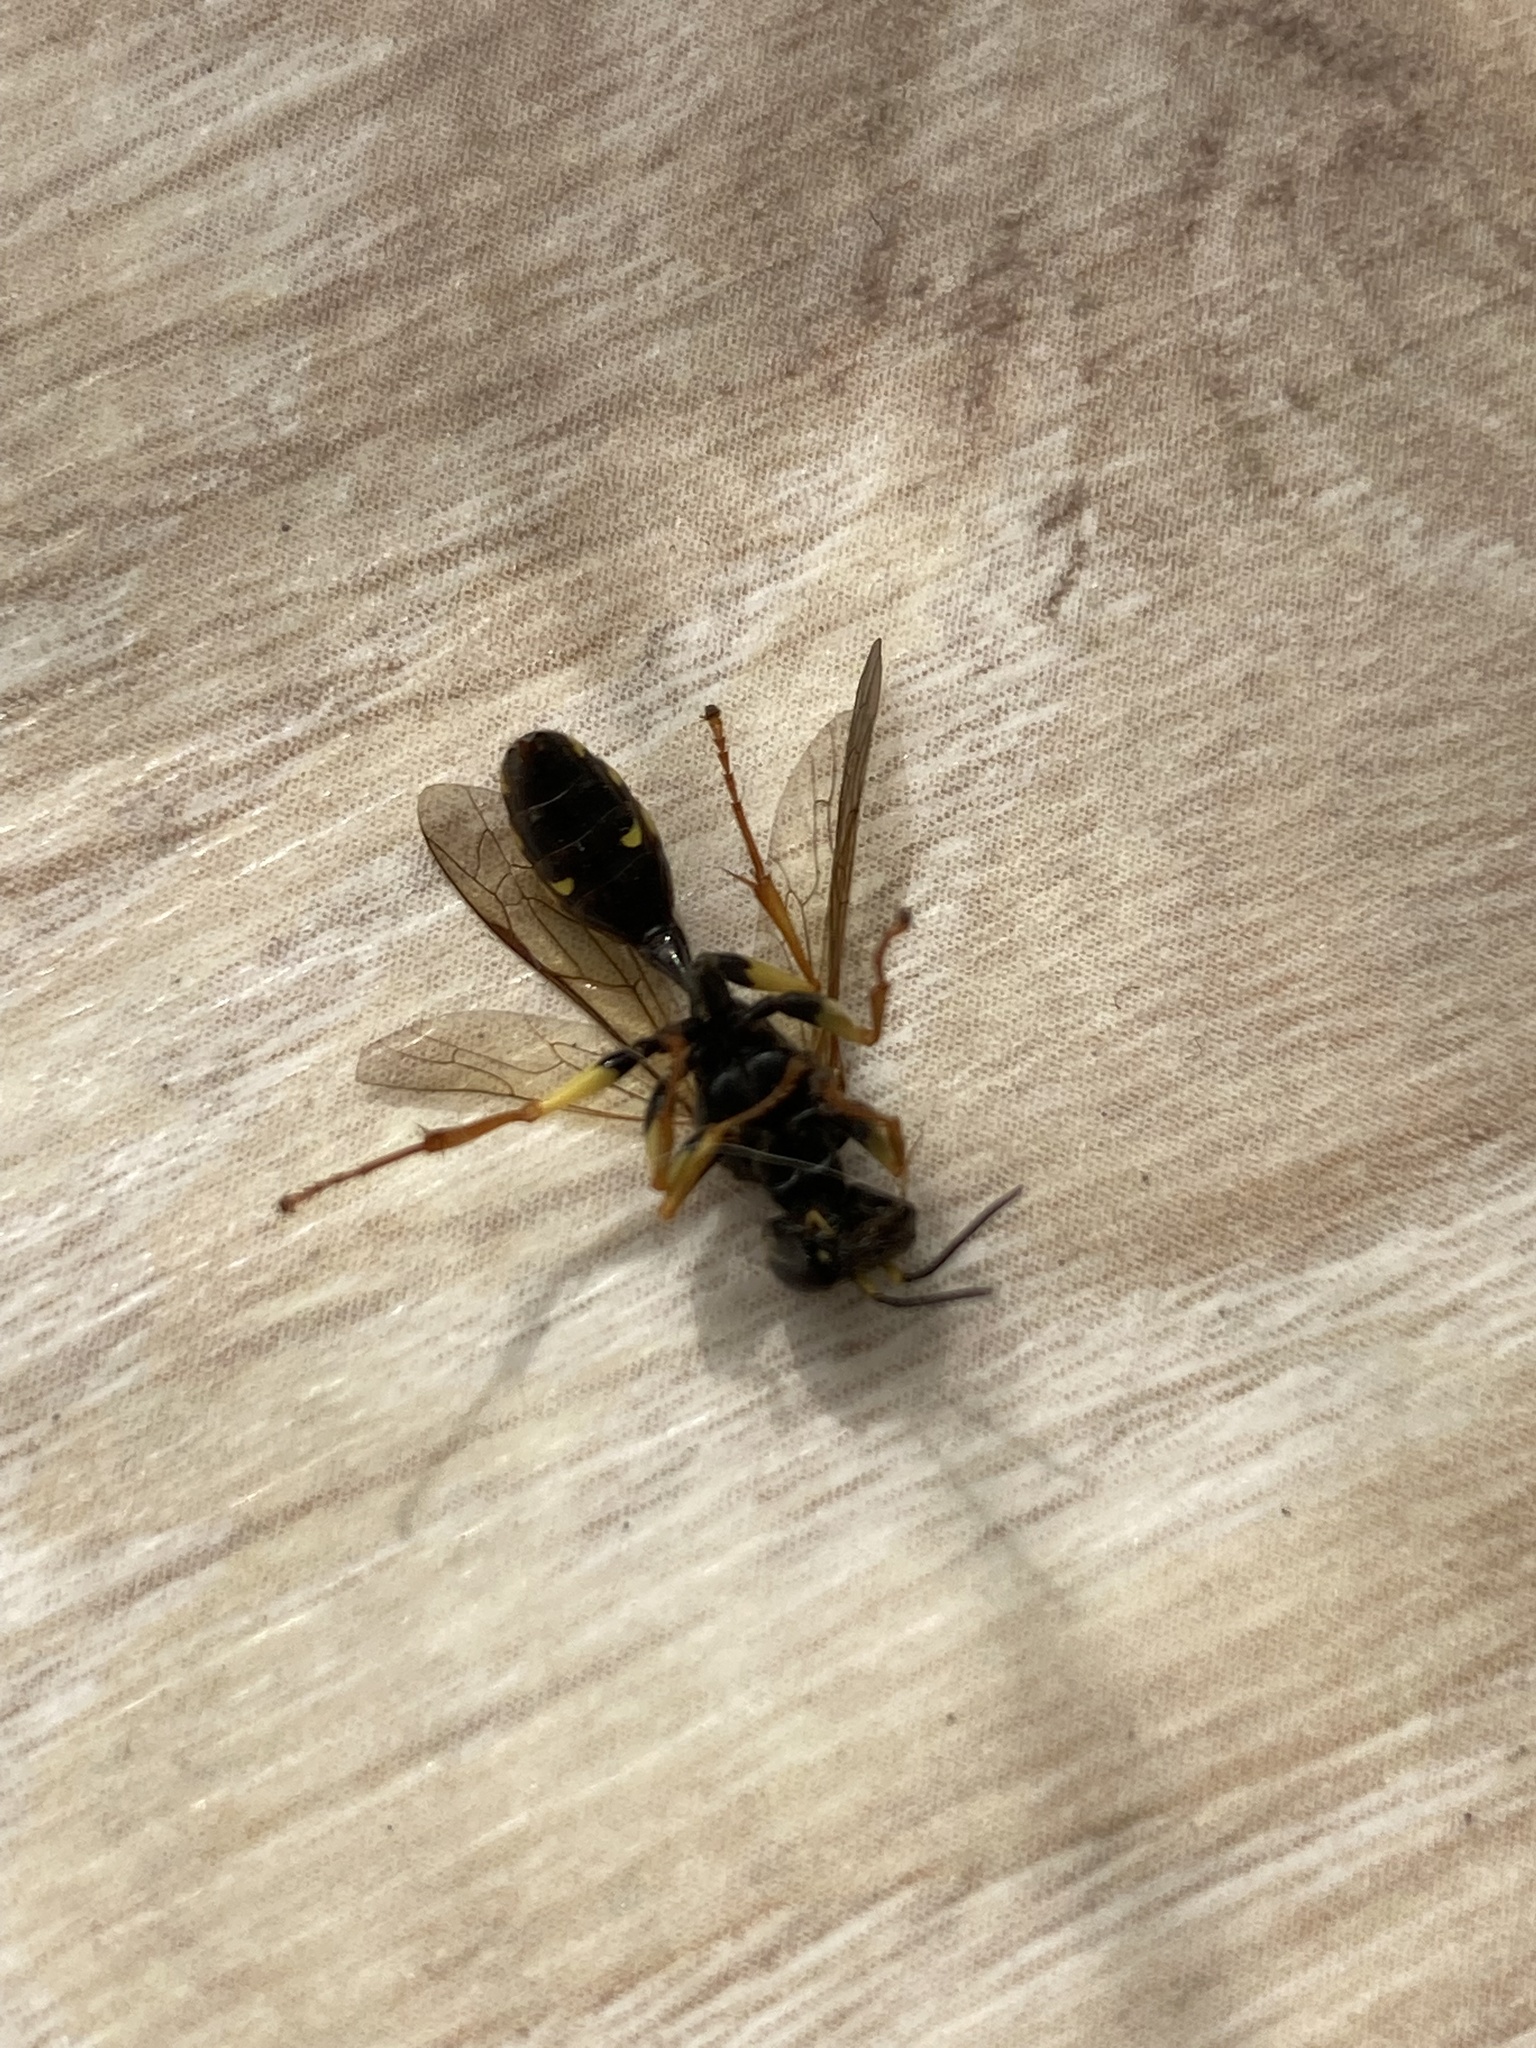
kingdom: Animalia
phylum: Arthropoda
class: Insecta
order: Hymenoptera
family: Crabronidae
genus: Mellinus
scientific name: Mellinus arvensis
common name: Field digger wasp
